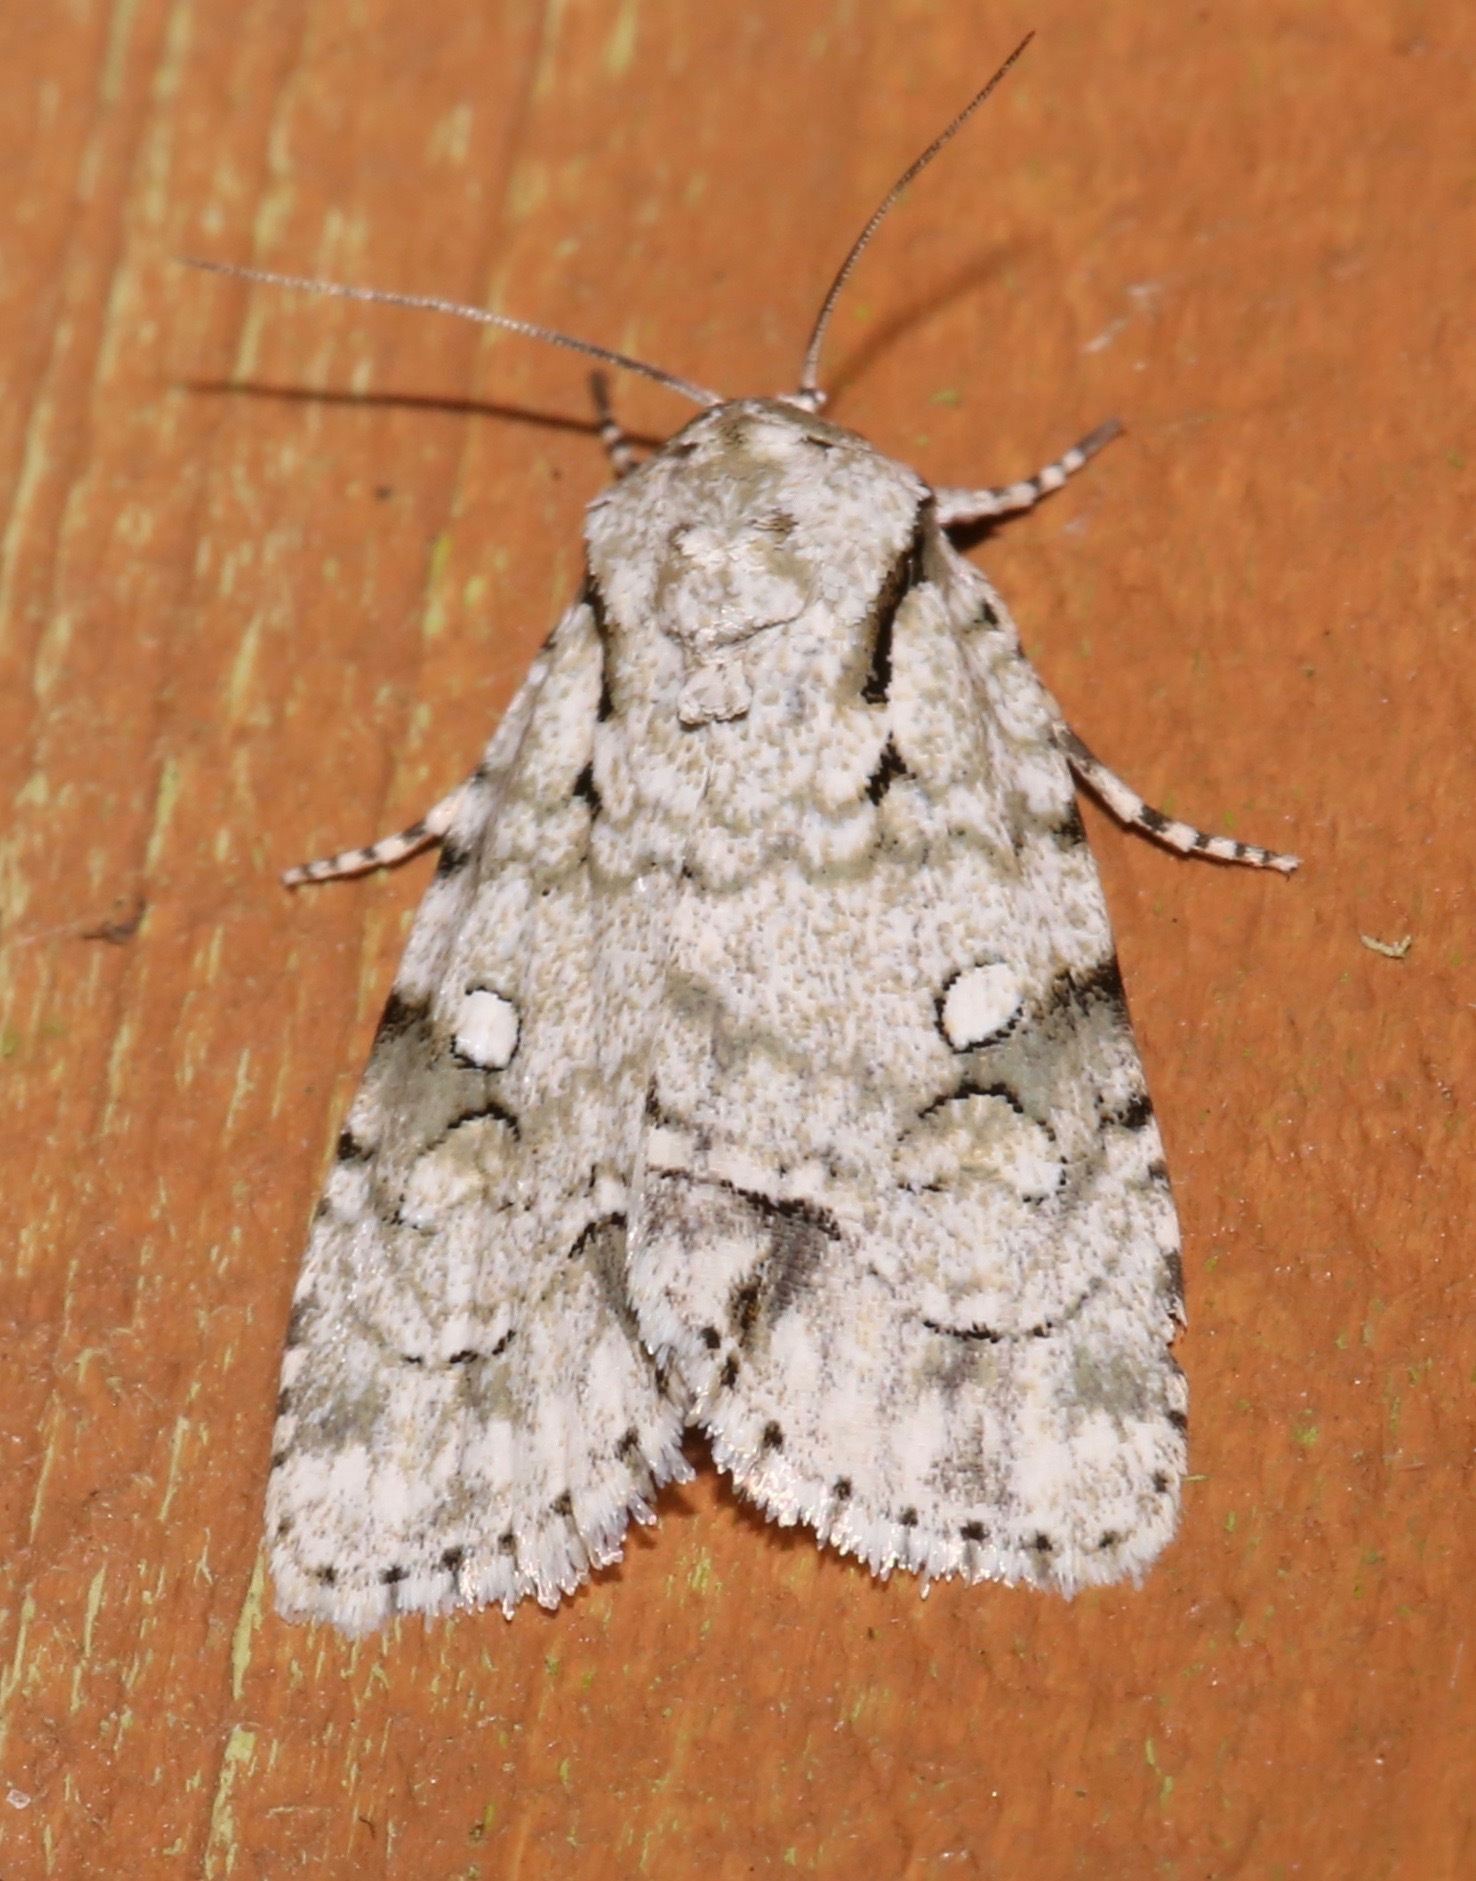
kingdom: Animalia
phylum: Arthropoda
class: Insecta
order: Lepidoptera
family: Noctuidae
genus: Acronicta
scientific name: Acronicta vinnula
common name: Delightful dagger
